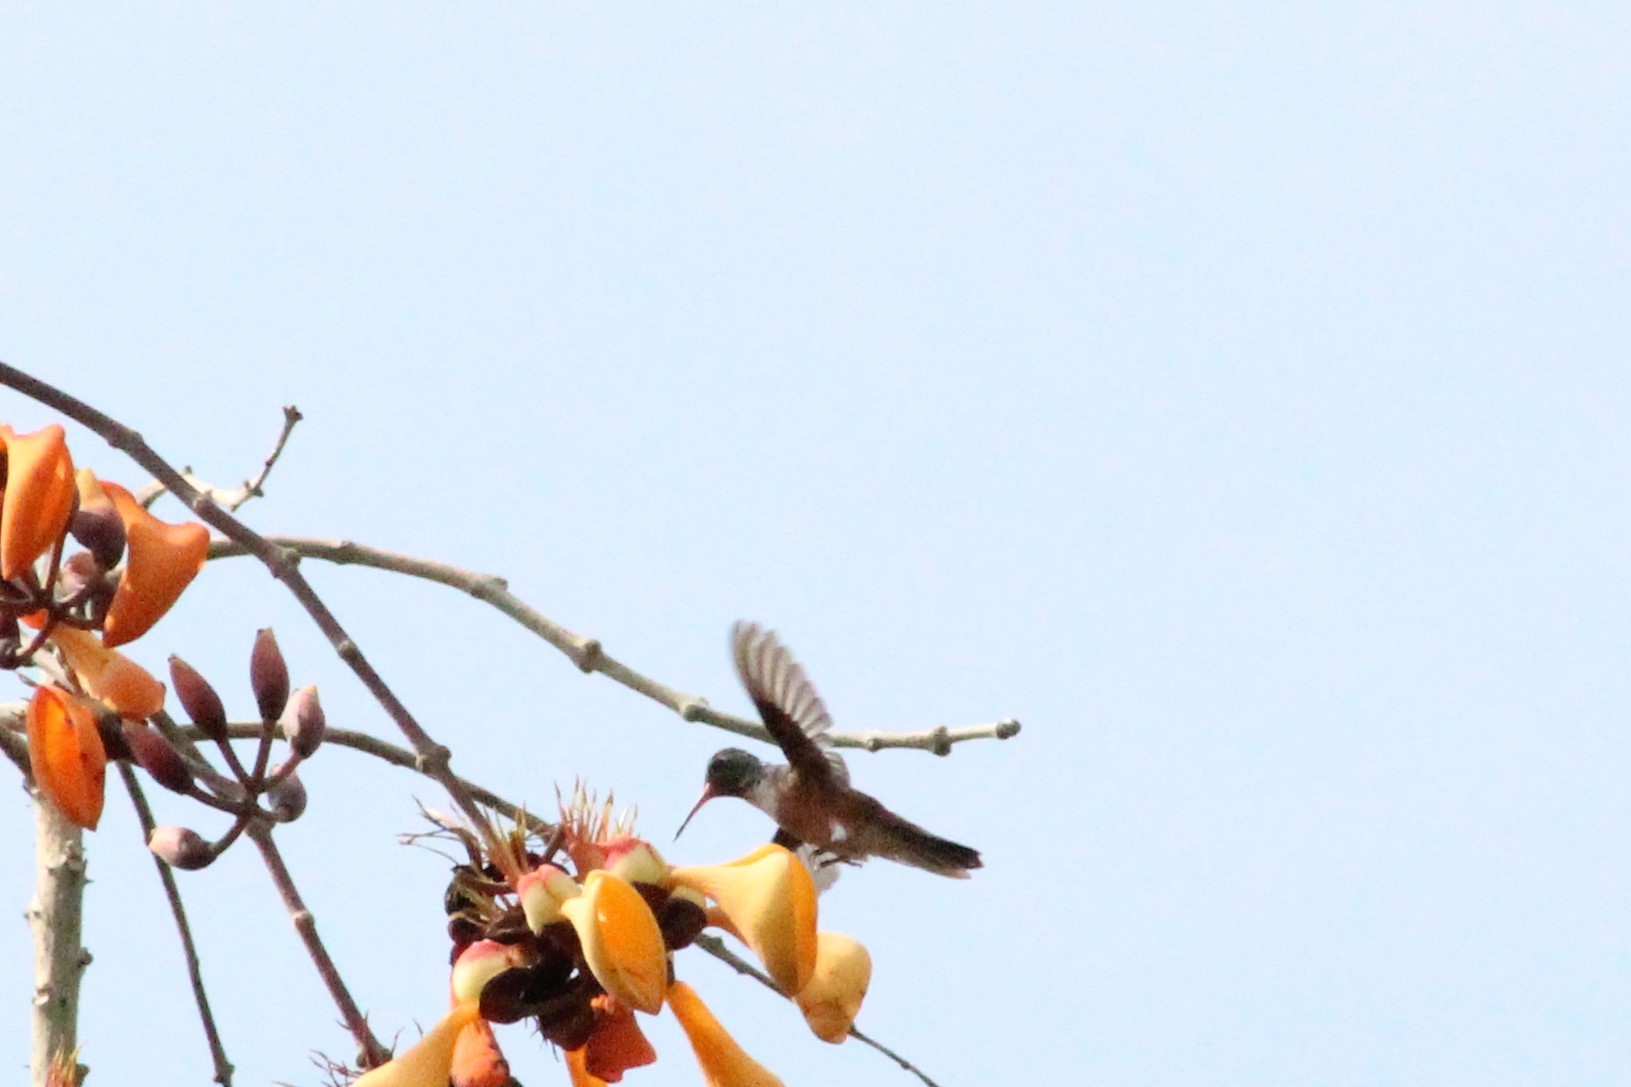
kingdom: Animalia
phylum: Chordata
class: Aves
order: Apodiformes
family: Trochilidae
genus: Amazilis
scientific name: Amazilis amazilia
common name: Amazilia hummingbird
